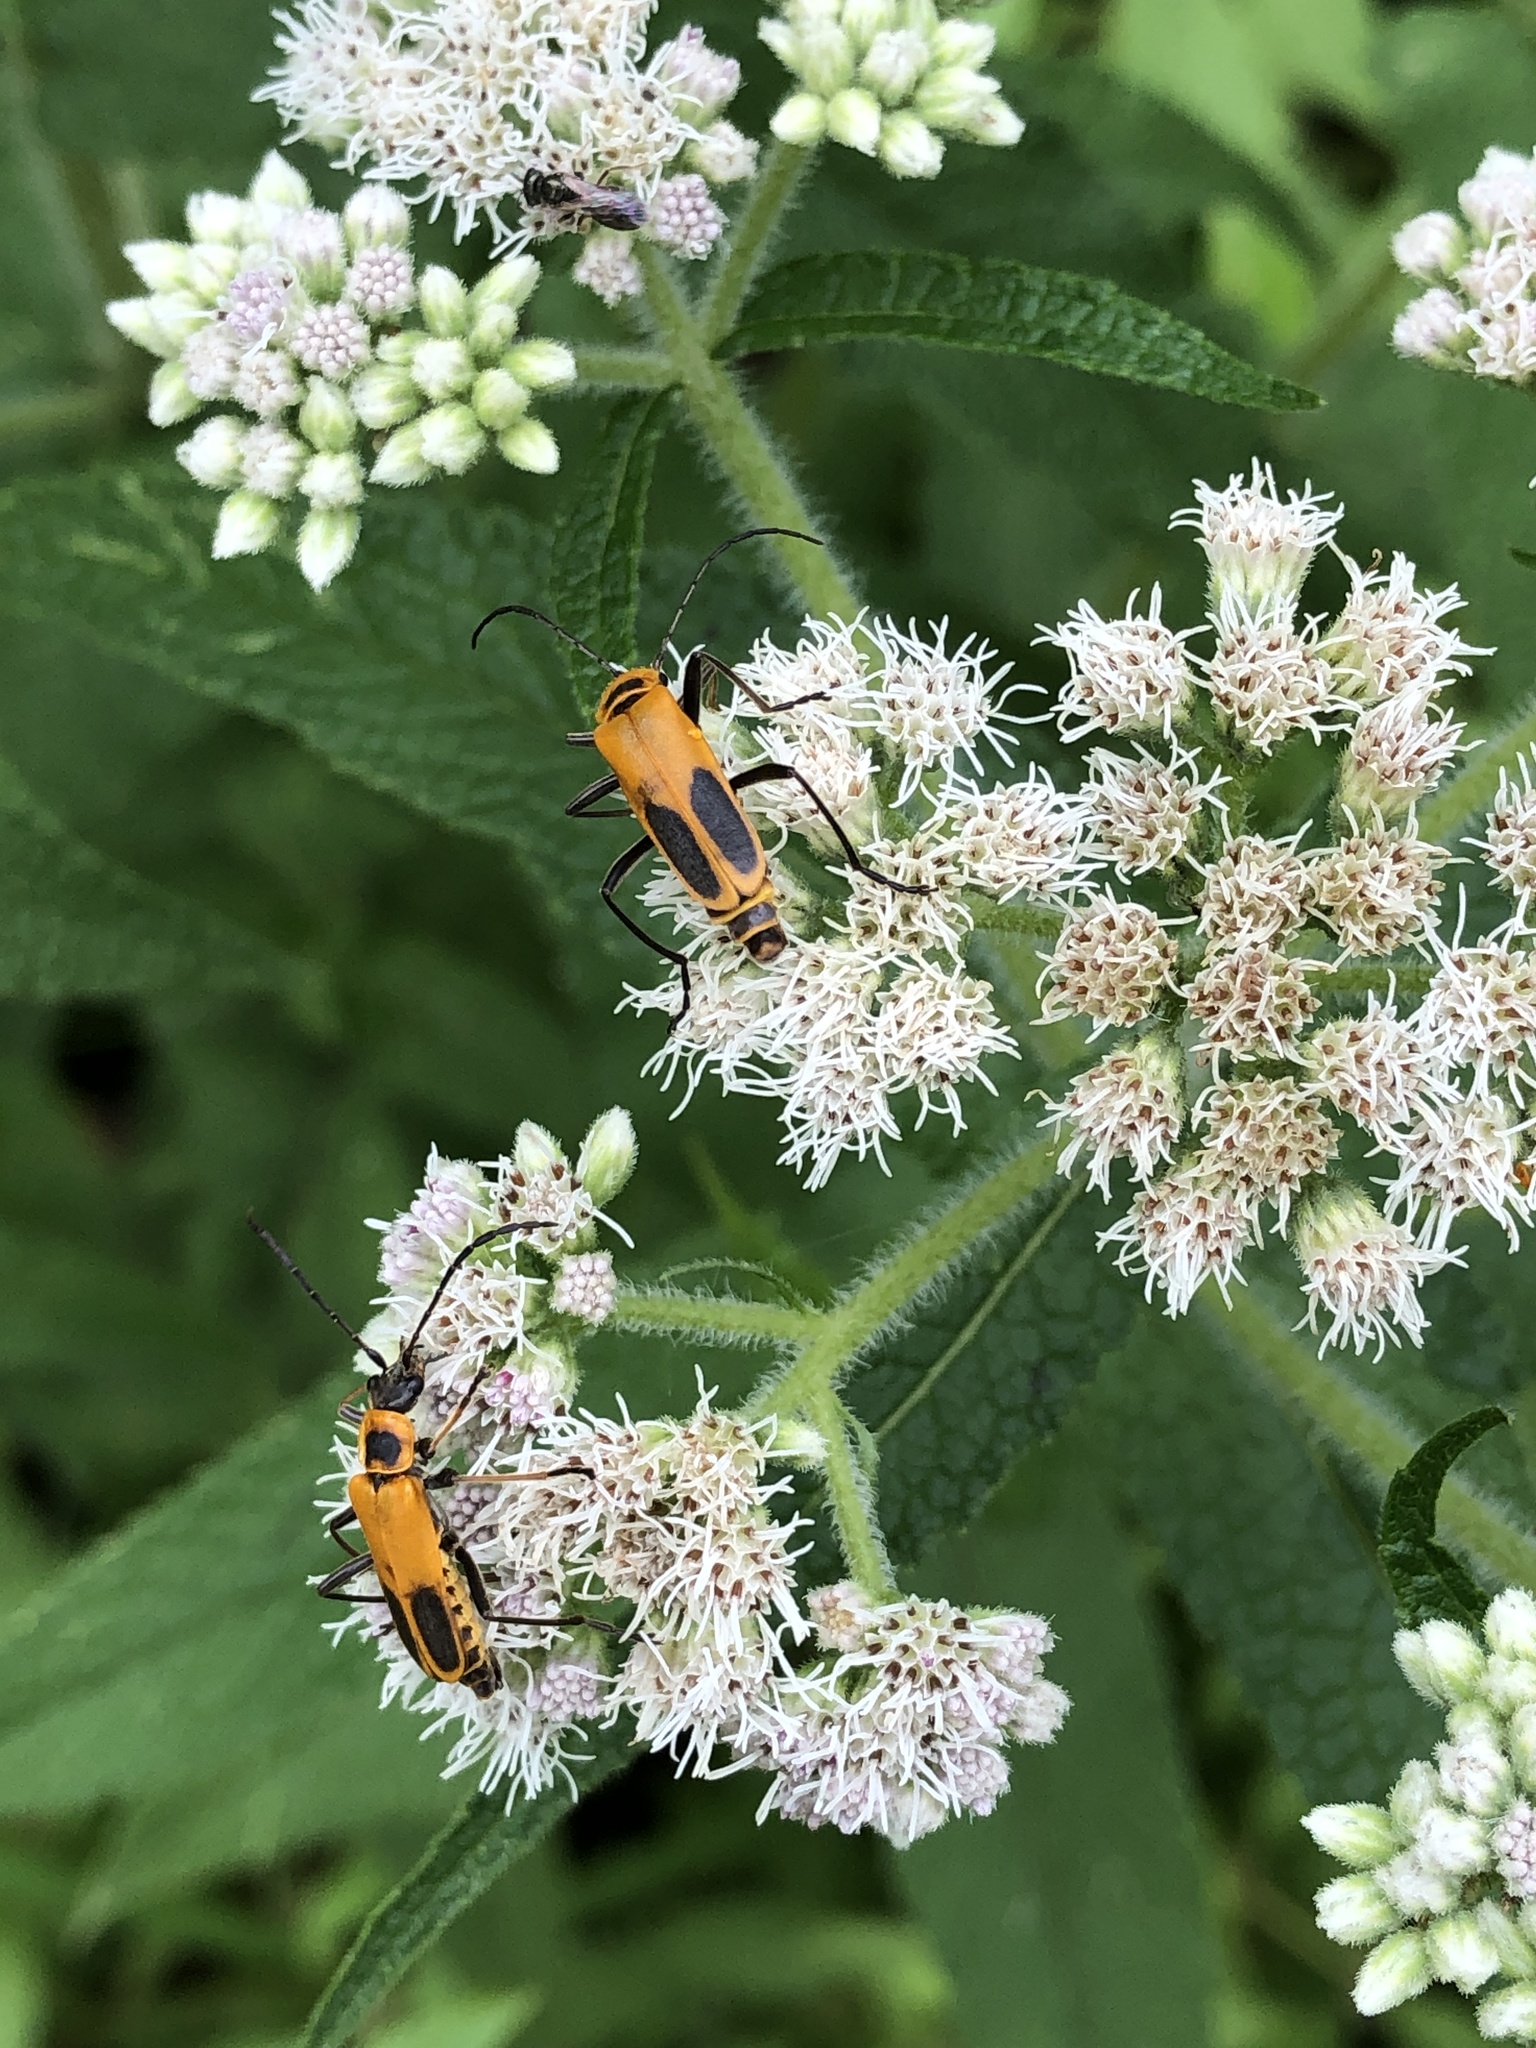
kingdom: Animalia
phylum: Arthropoda
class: Insecta
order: Coleoptera
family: Cantharidae
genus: Chauliognathus
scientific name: Chauliognathus pensylvanicus
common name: Goldenrod soldier beetle
